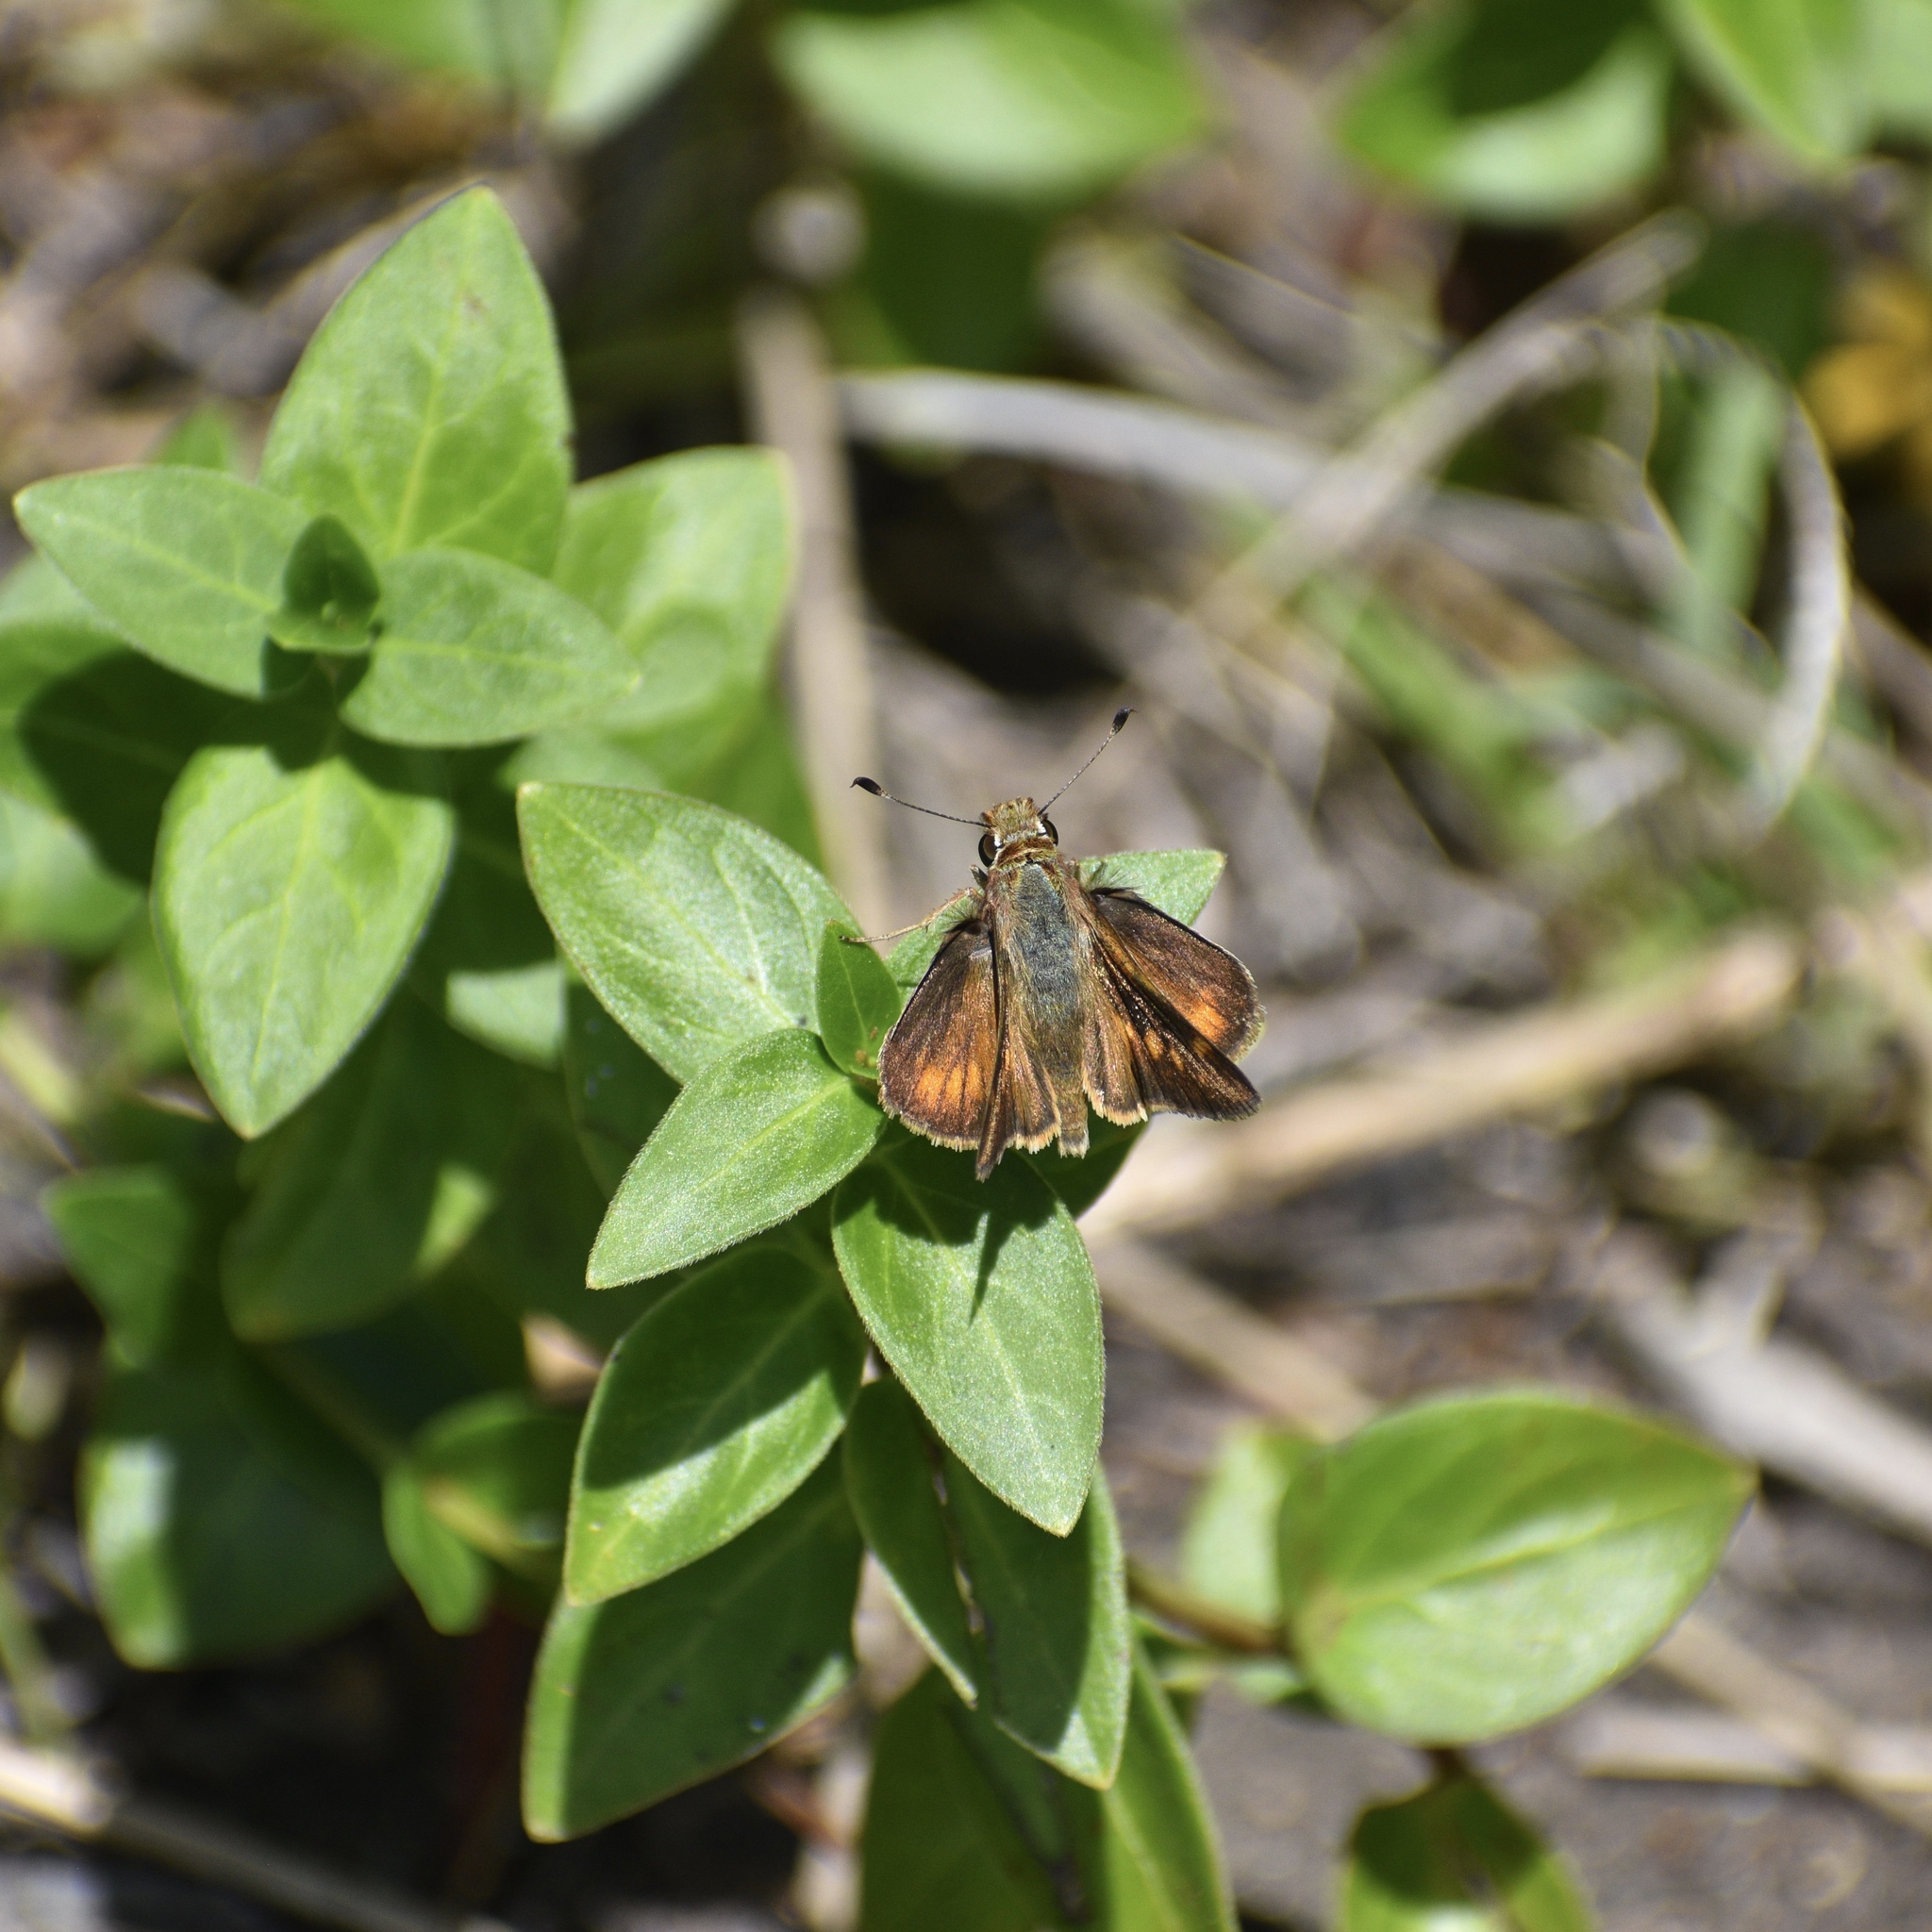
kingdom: Animalia
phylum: Arthropoda
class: Insecta
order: Lepidoptera
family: Hesperiidae
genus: Lon
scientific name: Lon melane
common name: Umber skipper
